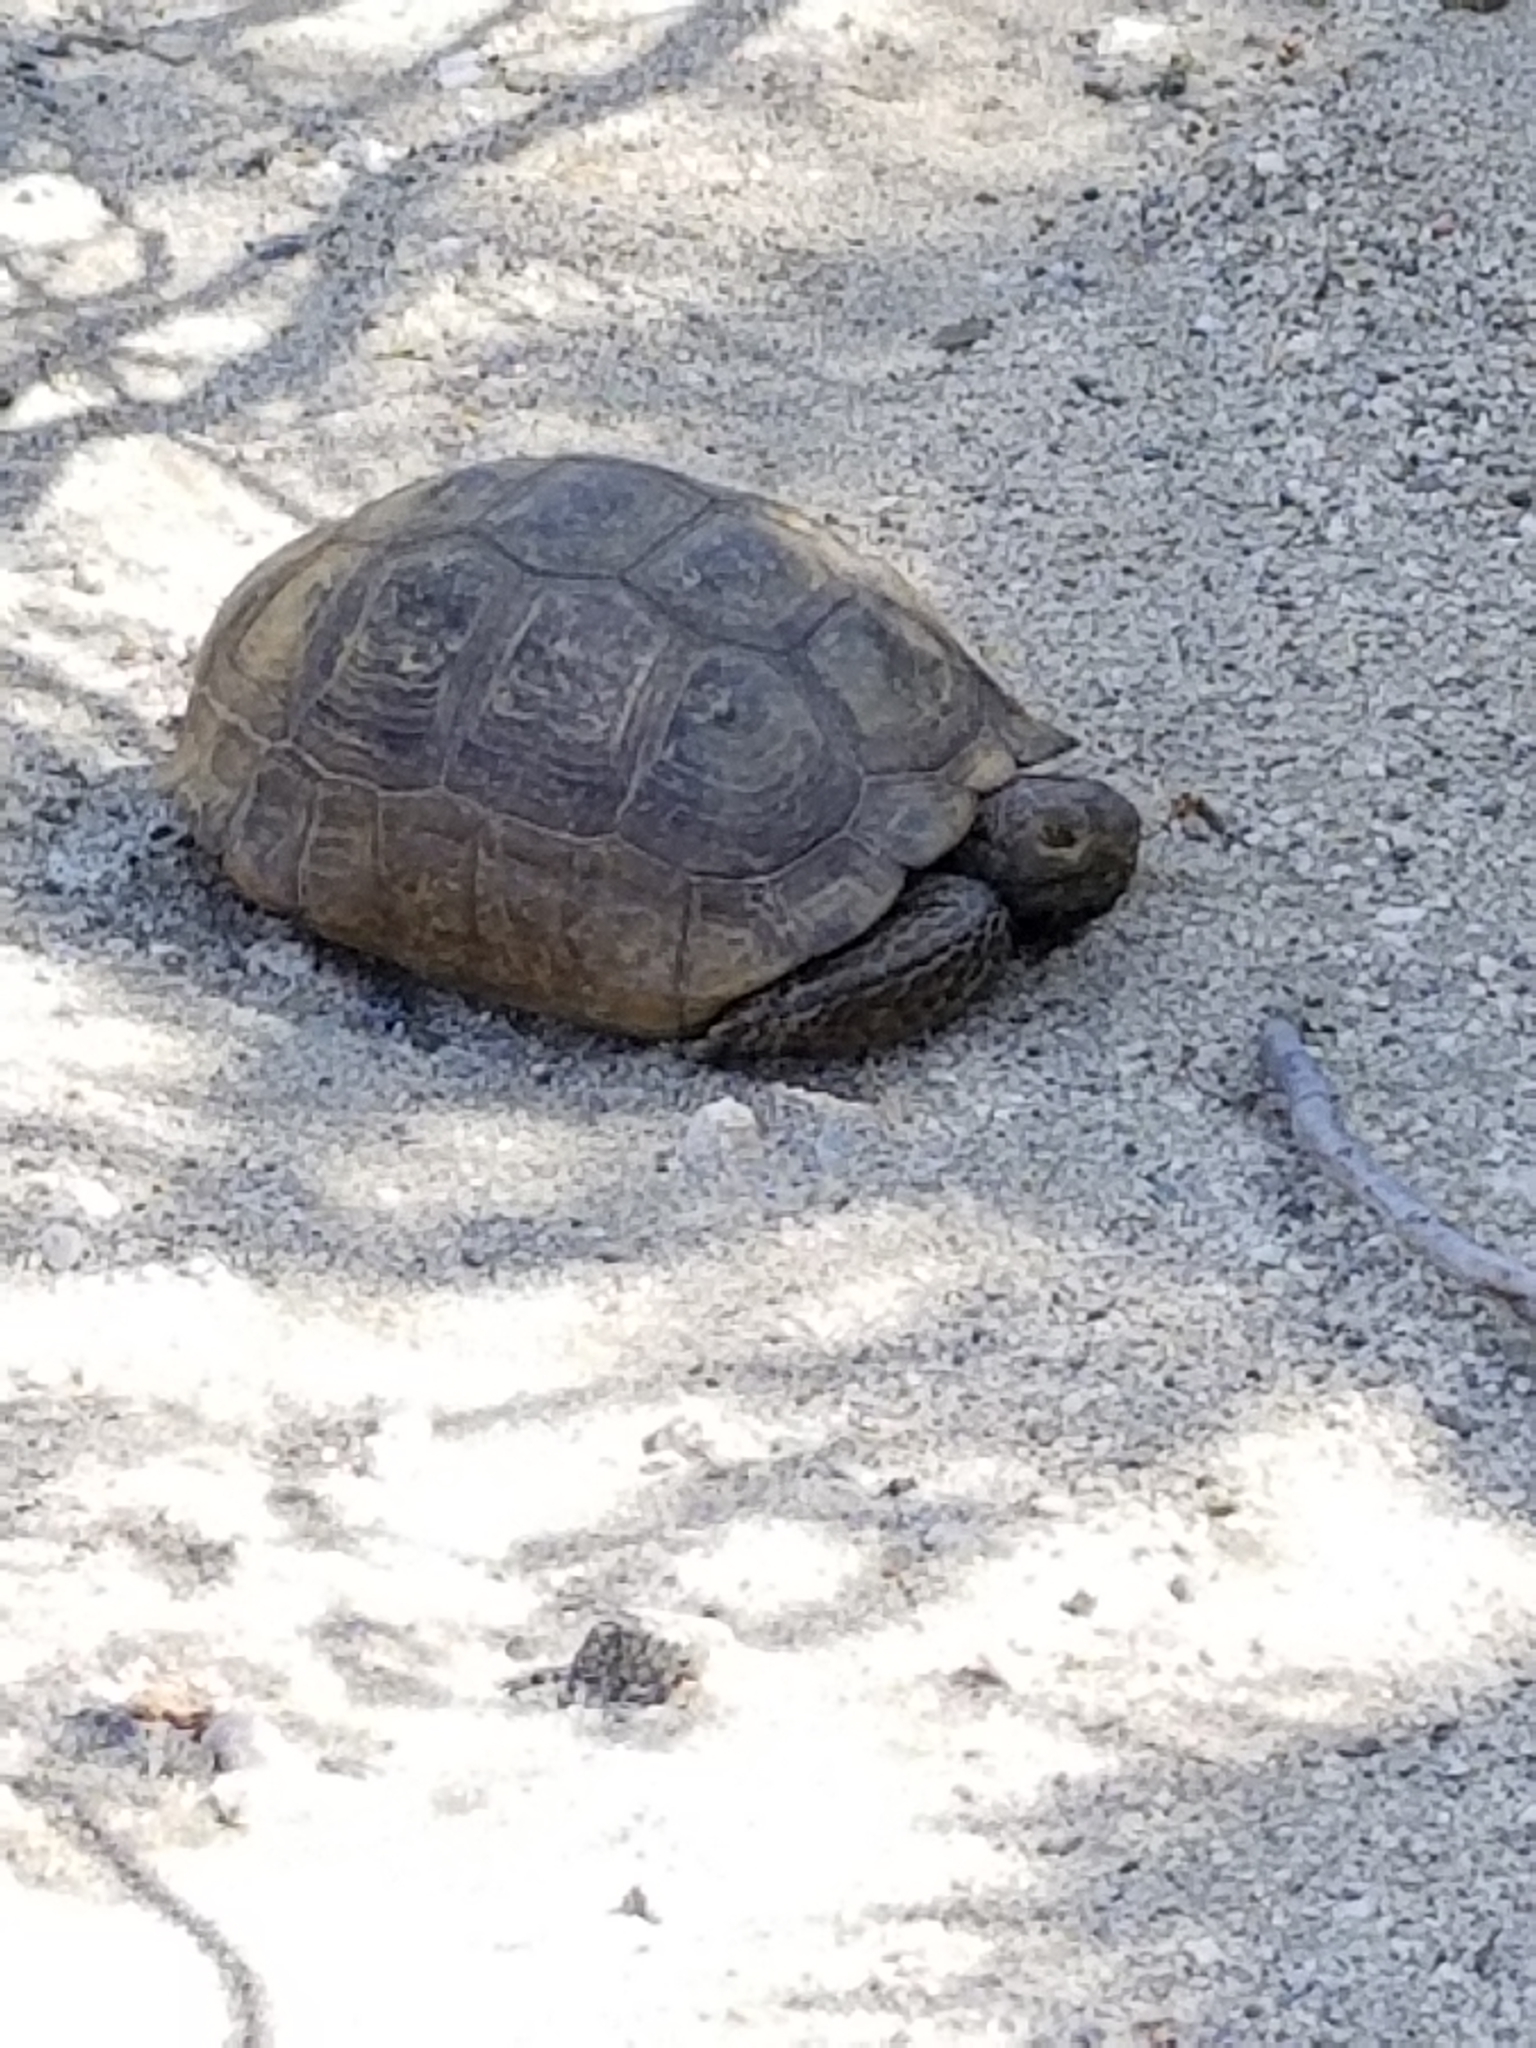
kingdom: Animalia
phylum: Chordata
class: Testudines
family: Testudinidae
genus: Gopherus
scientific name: Gopherus agassizii
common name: Mojave desert tortoise
